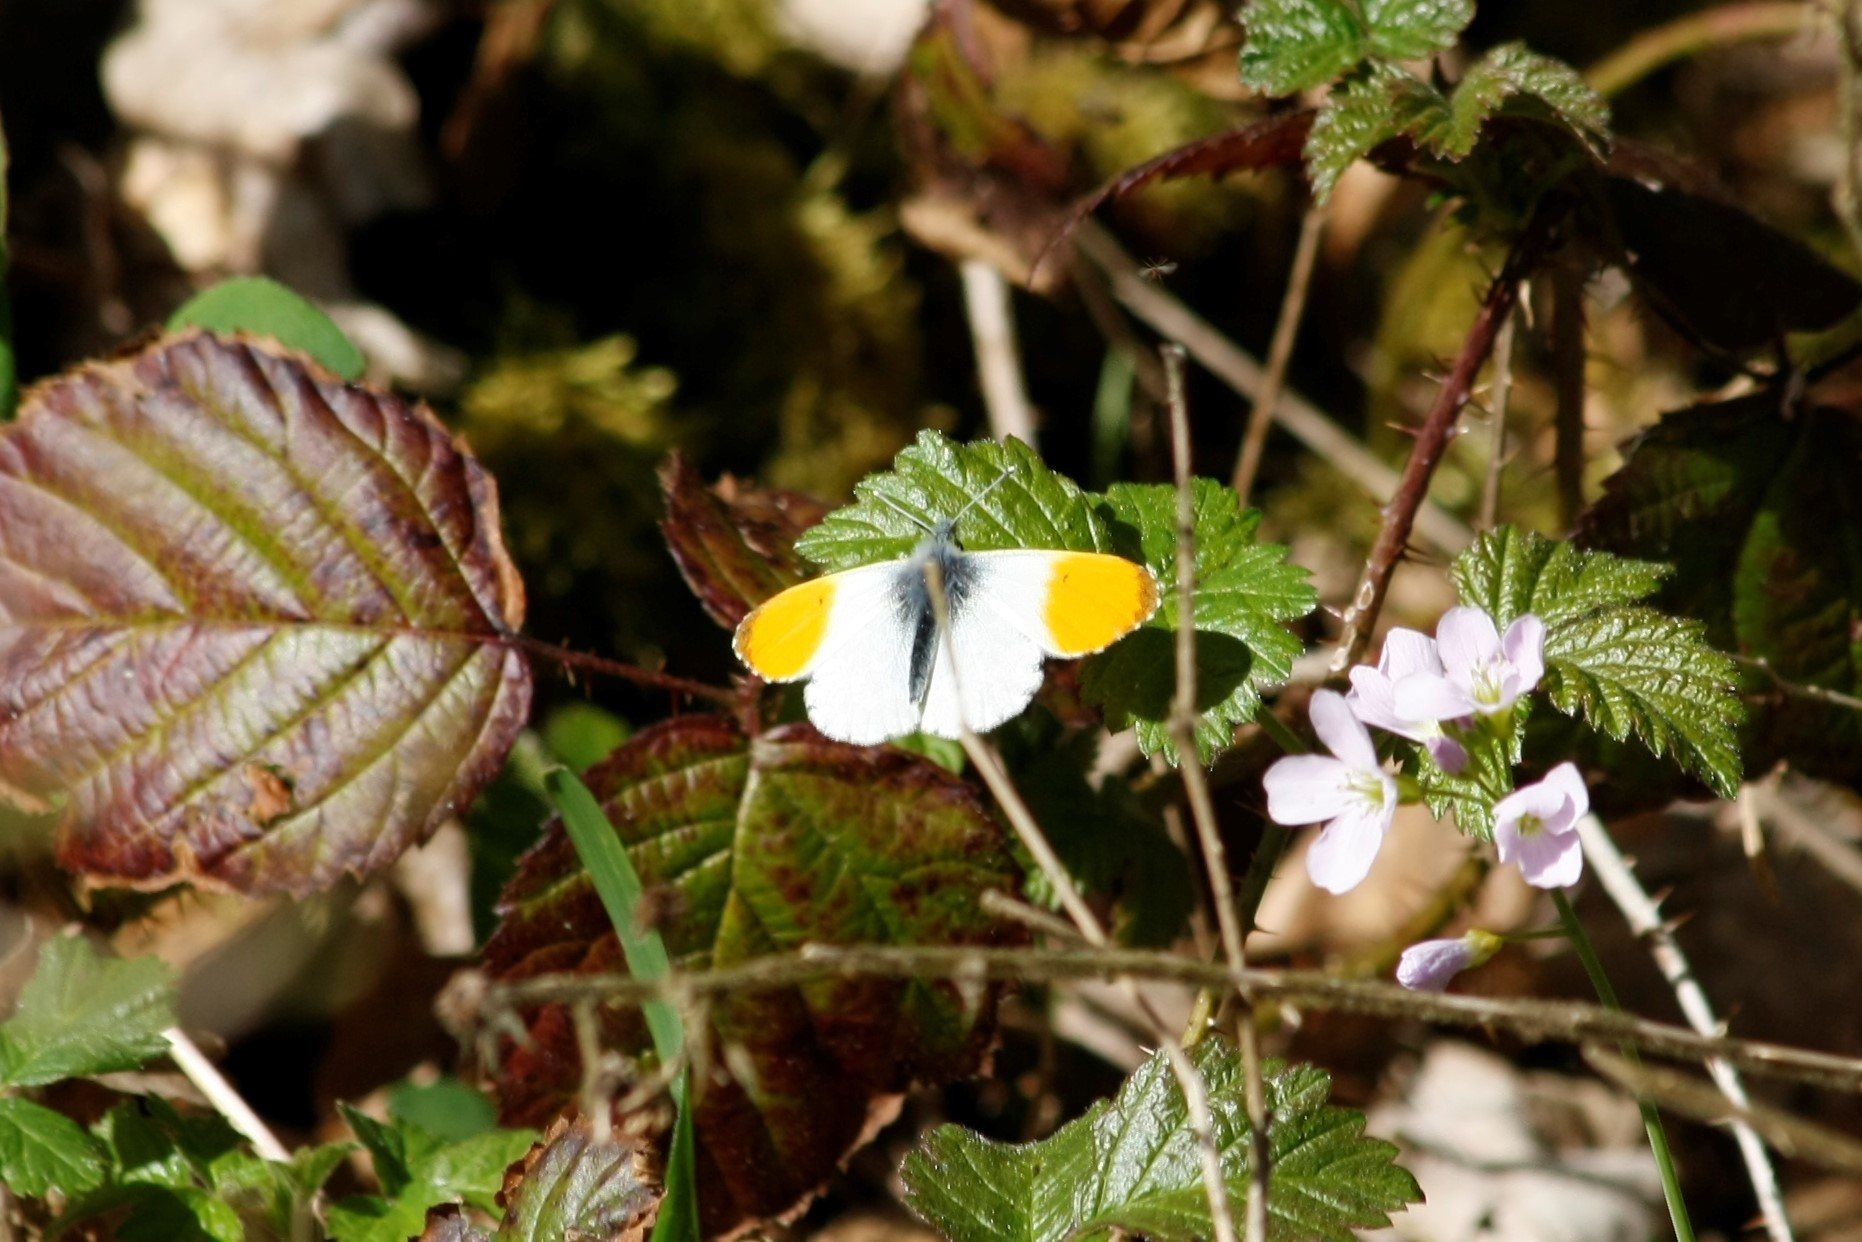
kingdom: Animalia
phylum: Arthropoda
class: Insecta
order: Lepidoptera
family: Pieridae
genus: Anthocharis
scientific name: Anthocharis cardamines
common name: Orange-tip
